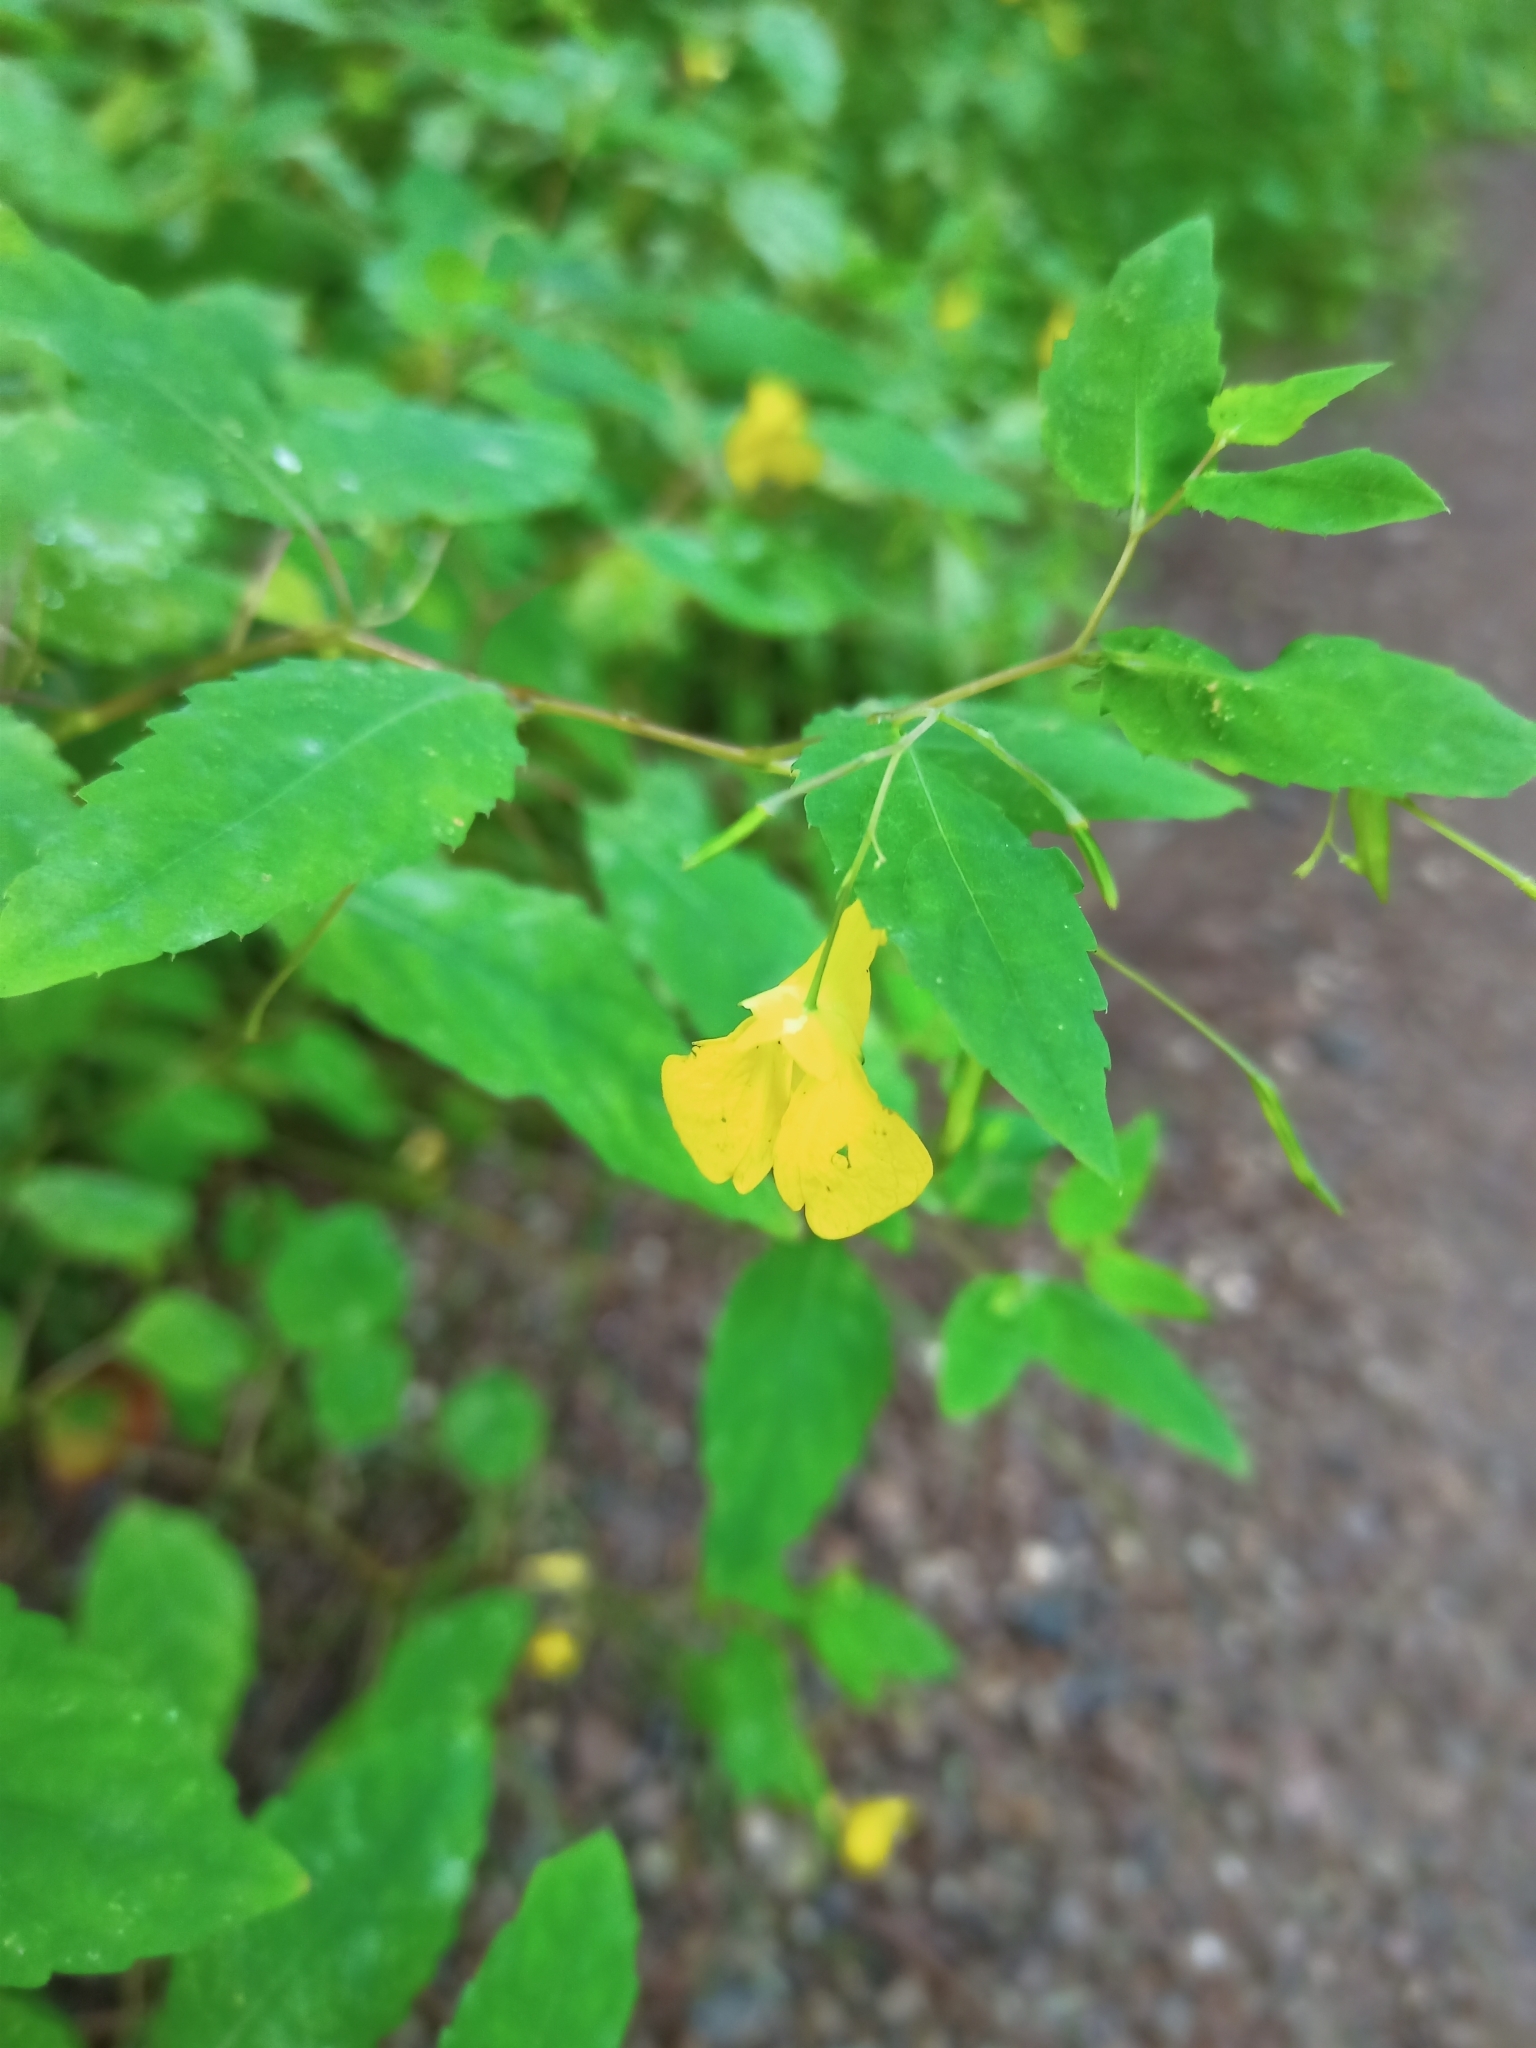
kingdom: Plantae
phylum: Tracheophyta
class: Magnoliopsida
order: Ericales
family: Balsaminaceae
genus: Impatiens
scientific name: Impatiens noli-tangere
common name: Touch-me-not balsam
